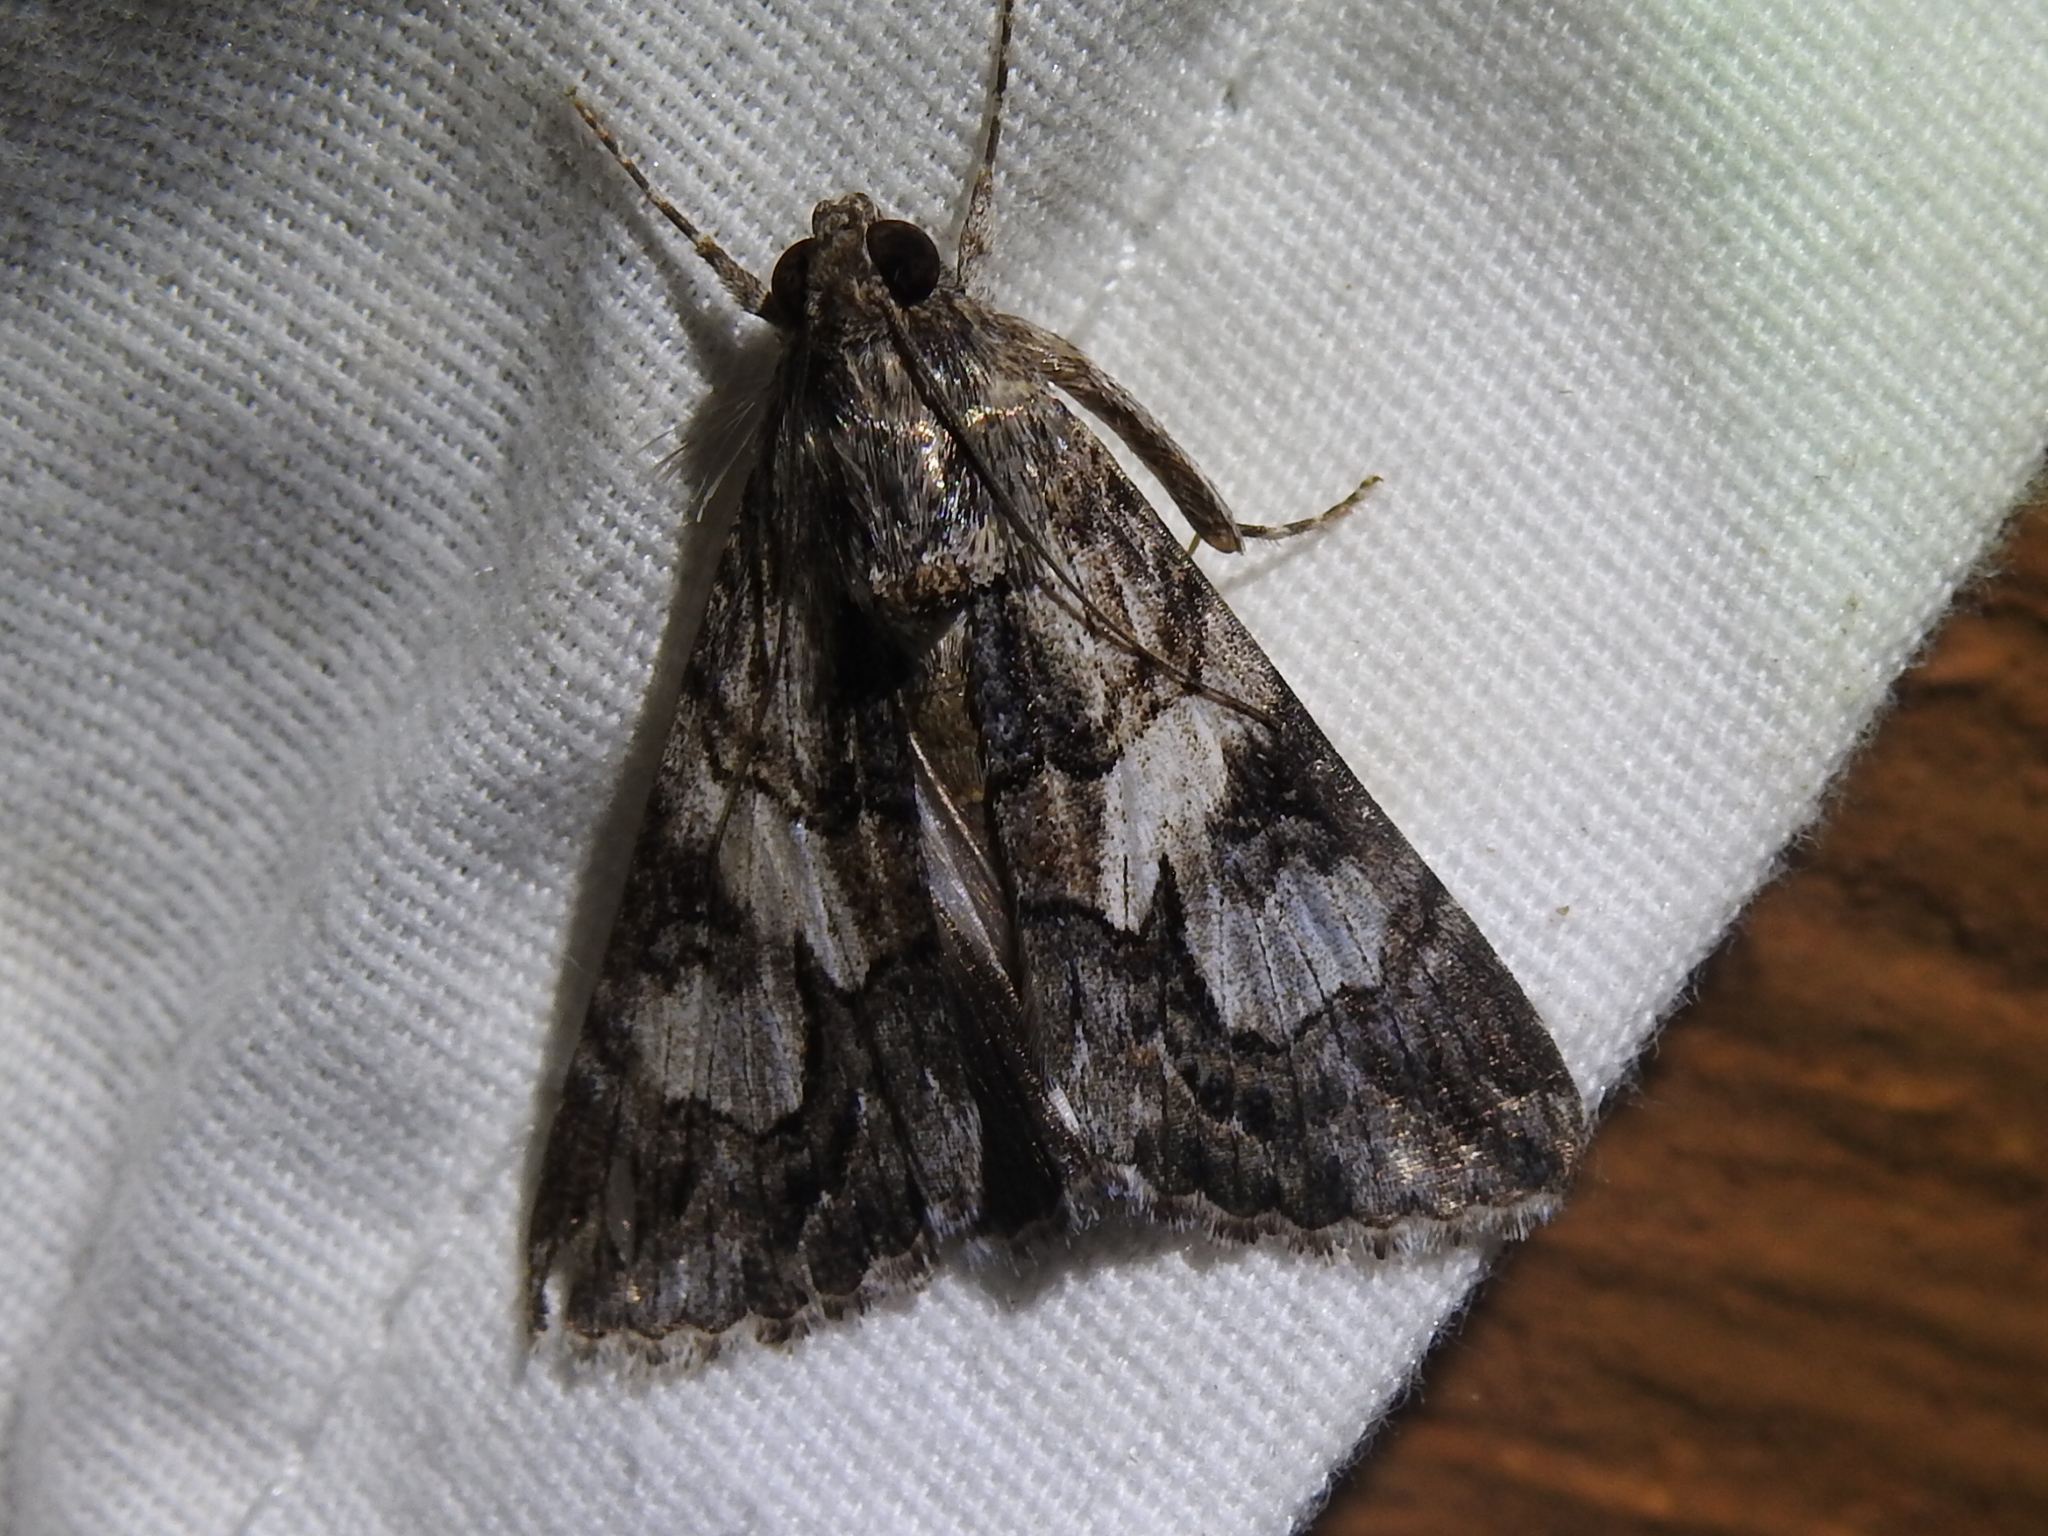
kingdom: Animalia
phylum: Arthropoda
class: Insecta
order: Lepidoptera
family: Erebidae
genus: Melipotis
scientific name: Melipotis jucunda
